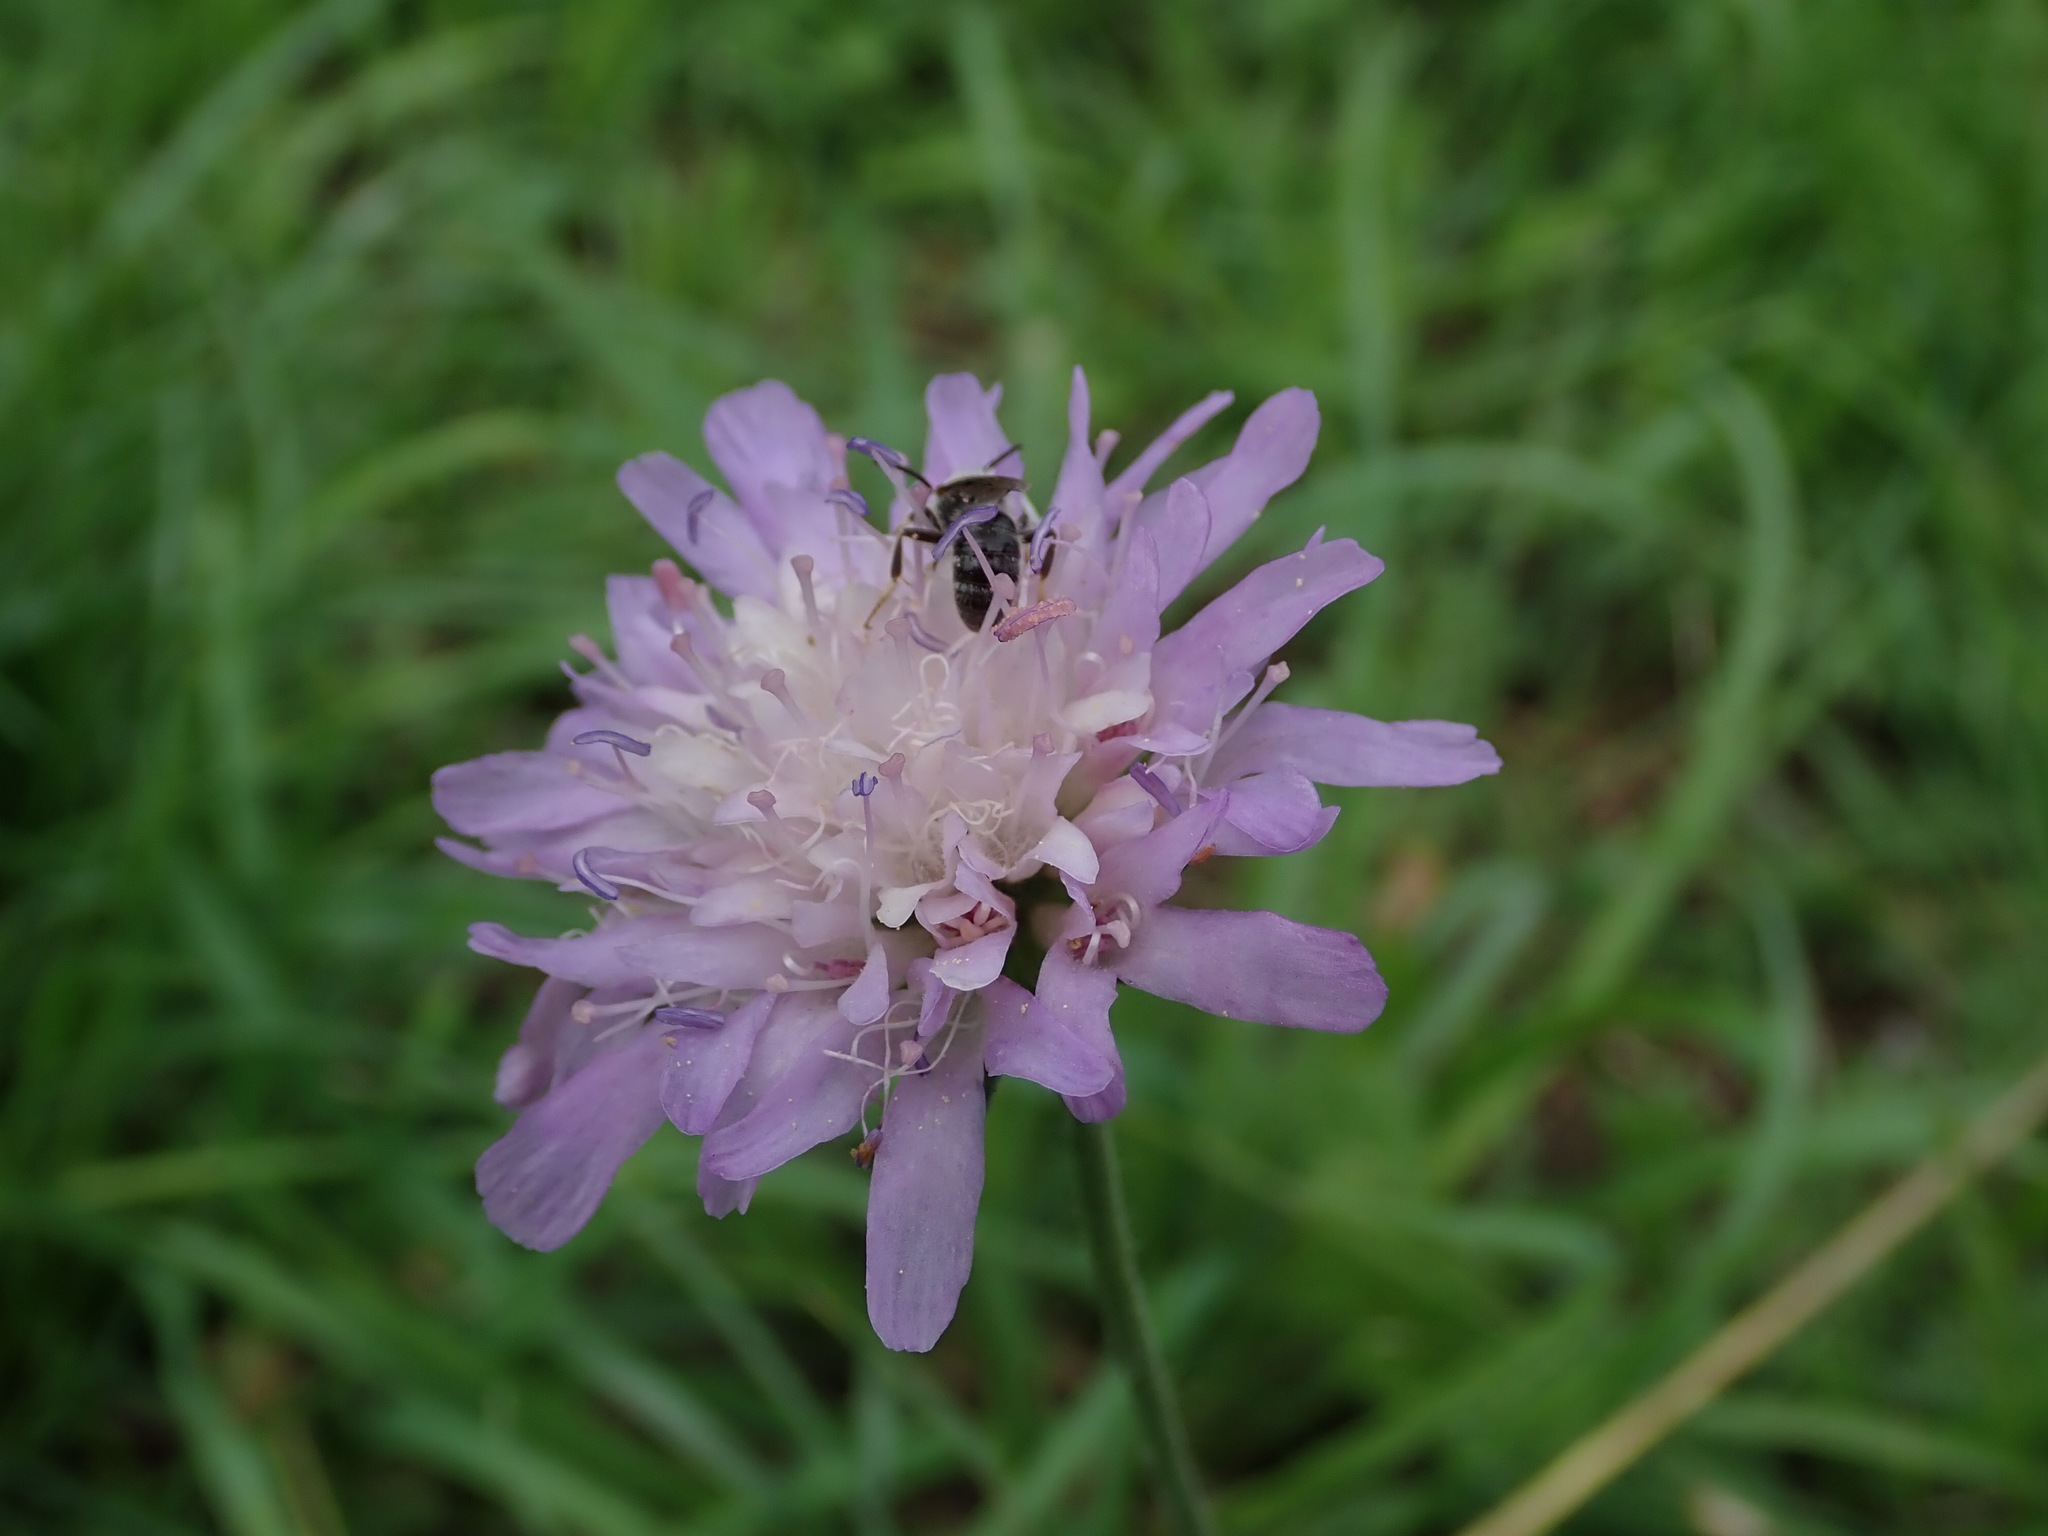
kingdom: Plantae
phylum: Tracheophyta
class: Magnoliopsida
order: Dipsacales
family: Caprifoliaceae
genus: Knautia
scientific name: Knautia arvensis
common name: Field scabiosa
